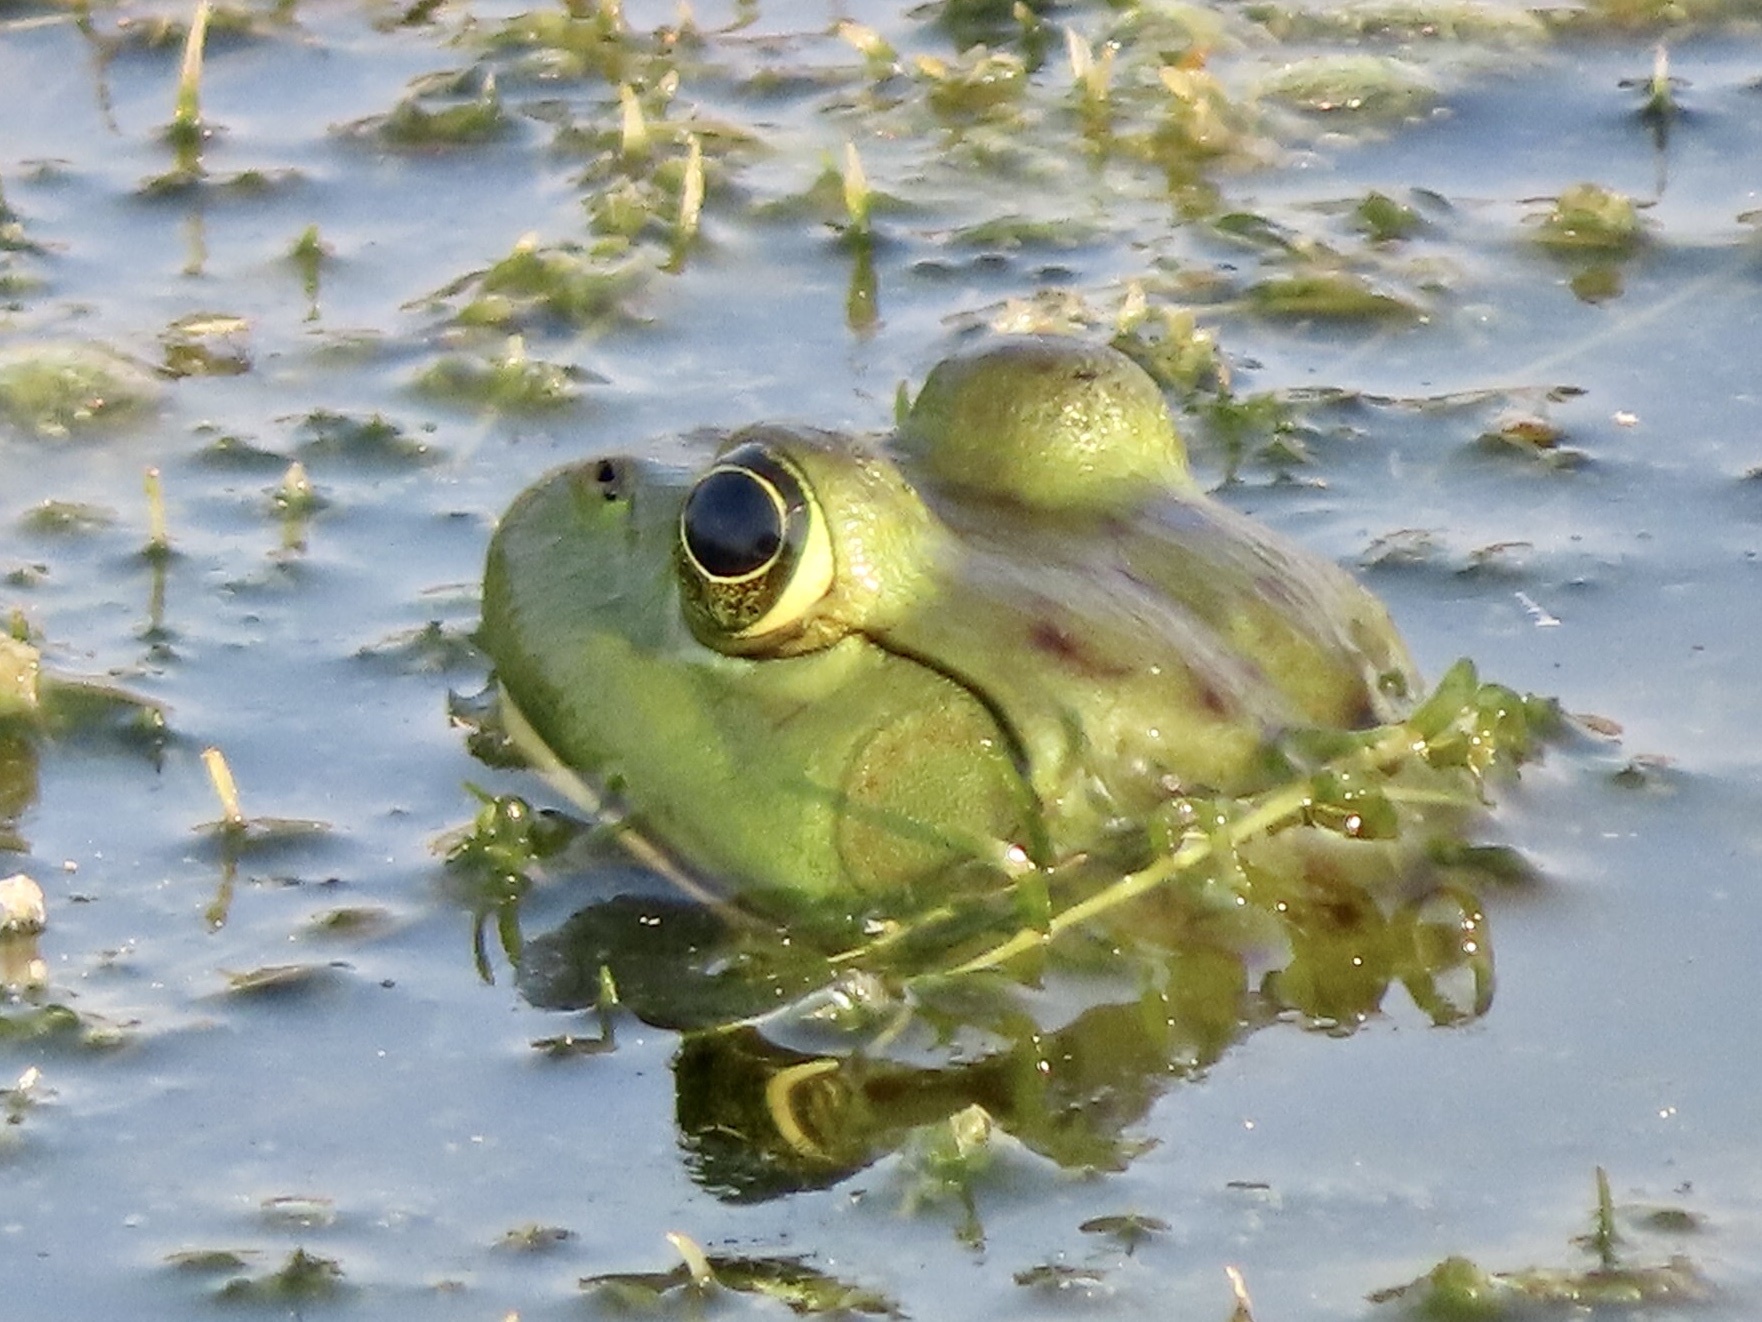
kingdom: Animalia
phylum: Chordata
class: Amphibia
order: Anura
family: Ranidae
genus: Lithobates
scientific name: Lithobates catesbeianus
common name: American bullfrog
